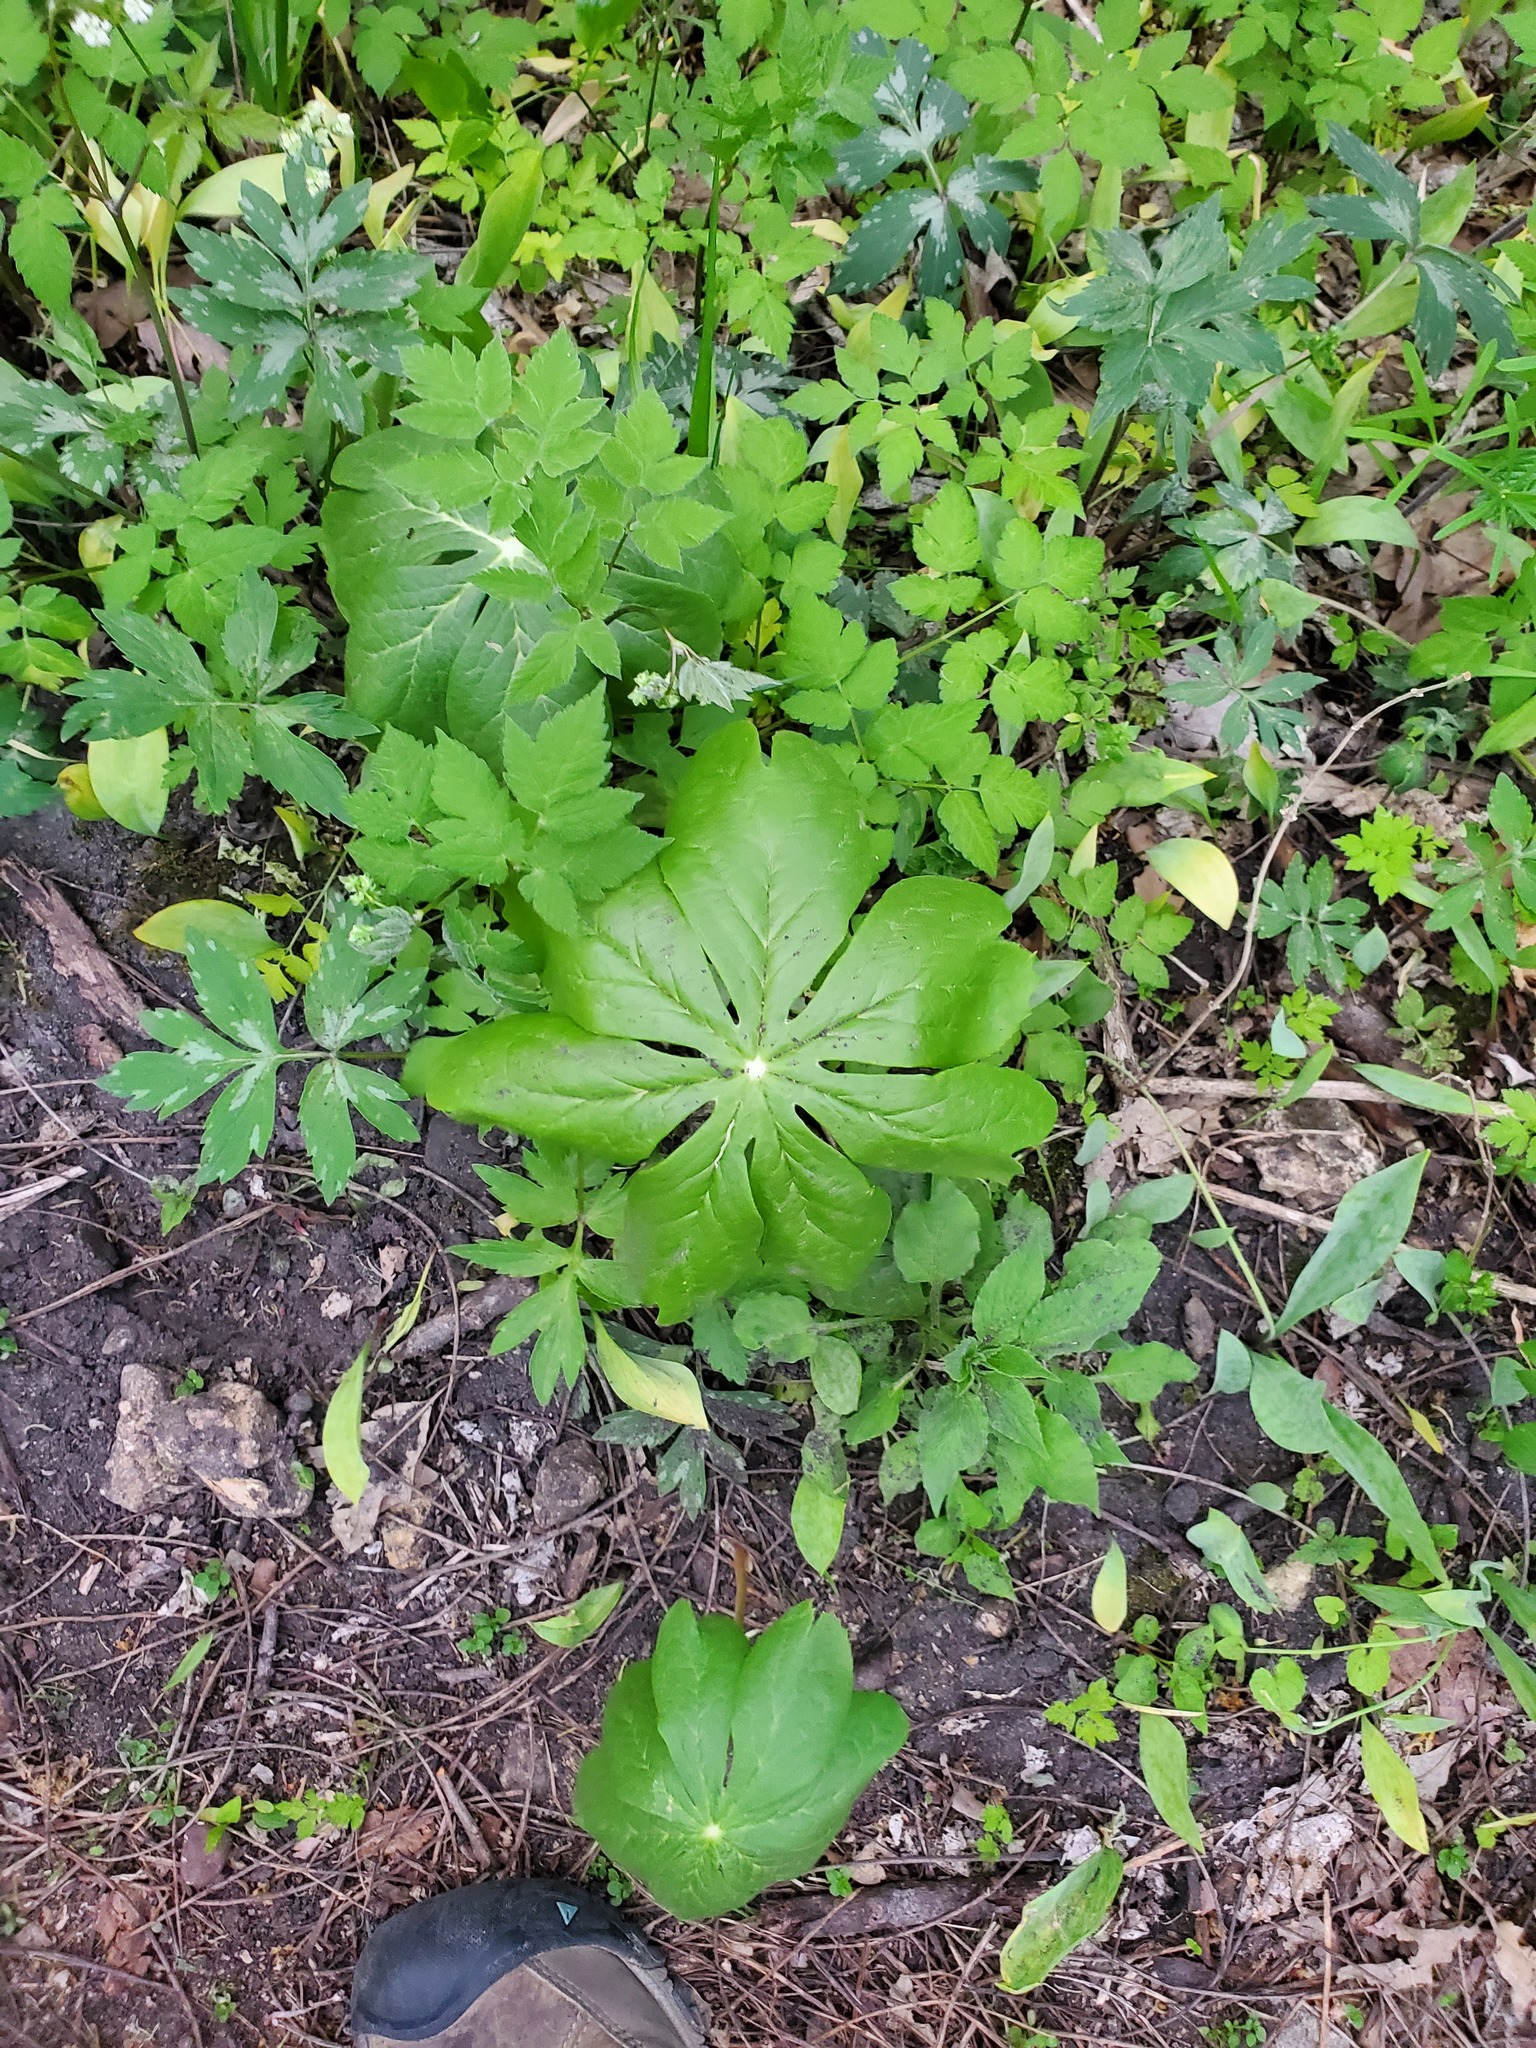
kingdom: Plantae
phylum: Tracheophyta
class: Magnoliopsida
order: Ranunculales
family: Berberidaceae
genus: Podophyllum
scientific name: Podophyllum peltatum
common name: Wild mandrake
